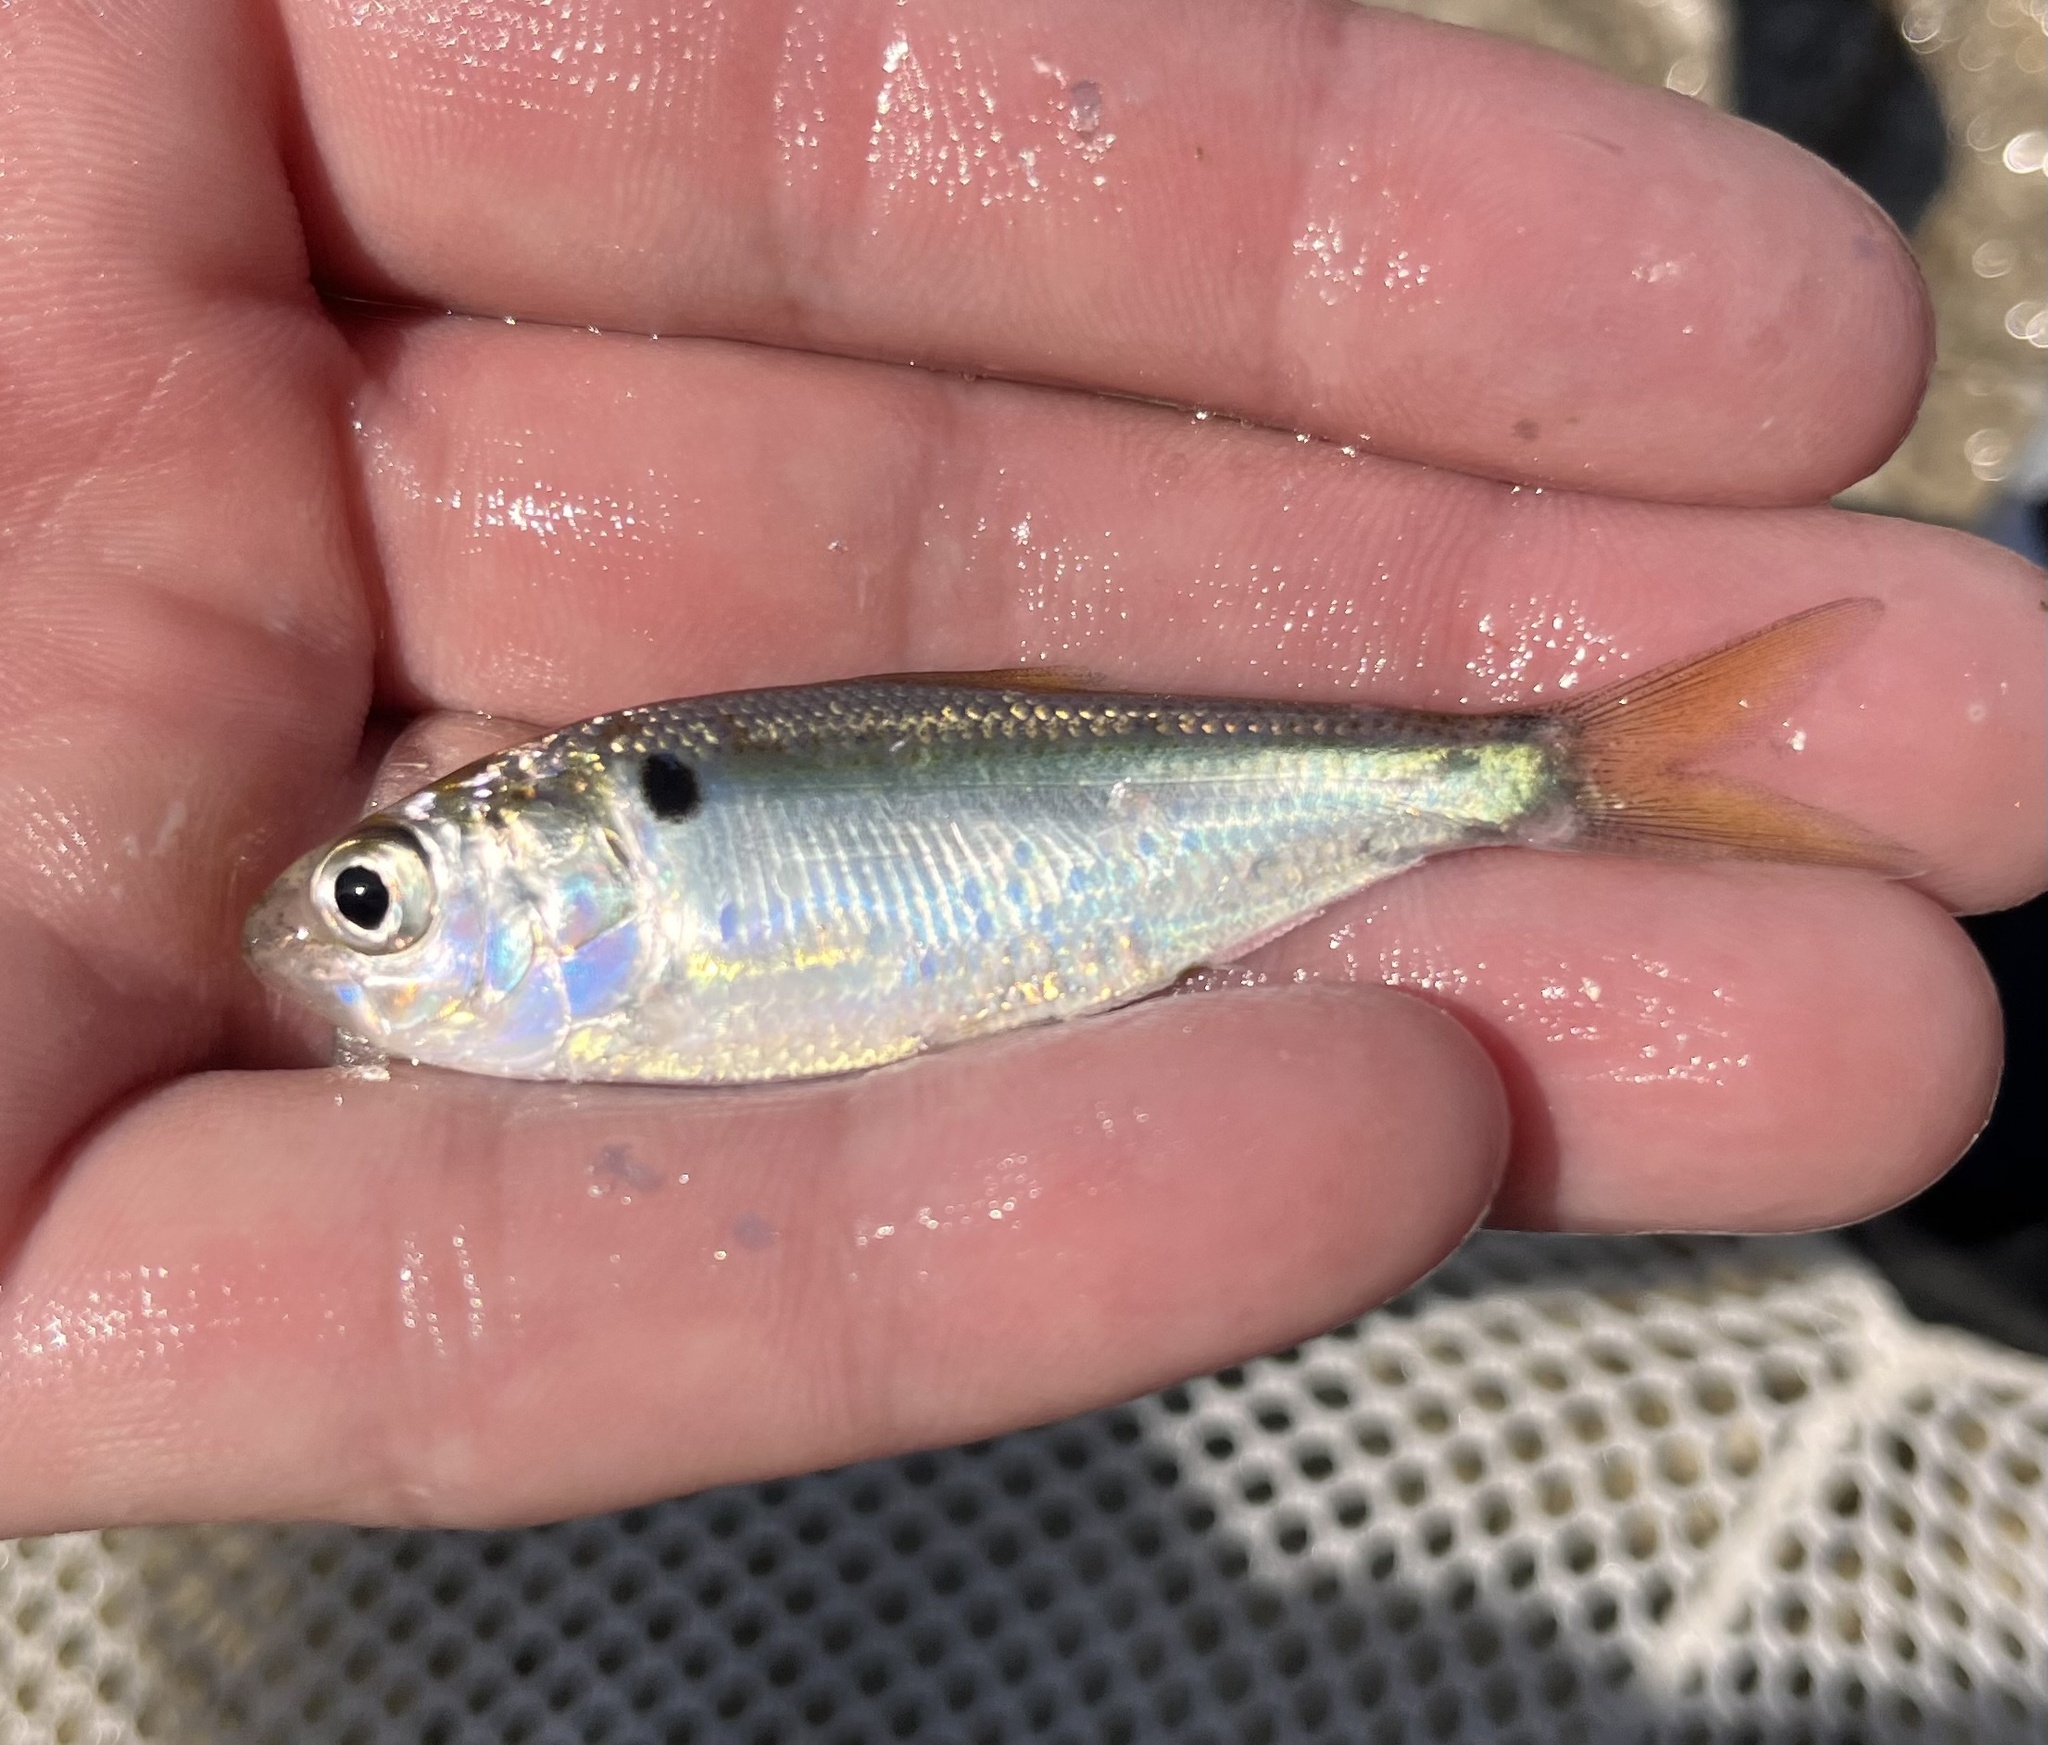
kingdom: Animalia
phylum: Chordata
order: Clupeiformes
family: Clupeidae
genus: Dorosoma
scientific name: Dorosoma petenense
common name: Threadfin shad
